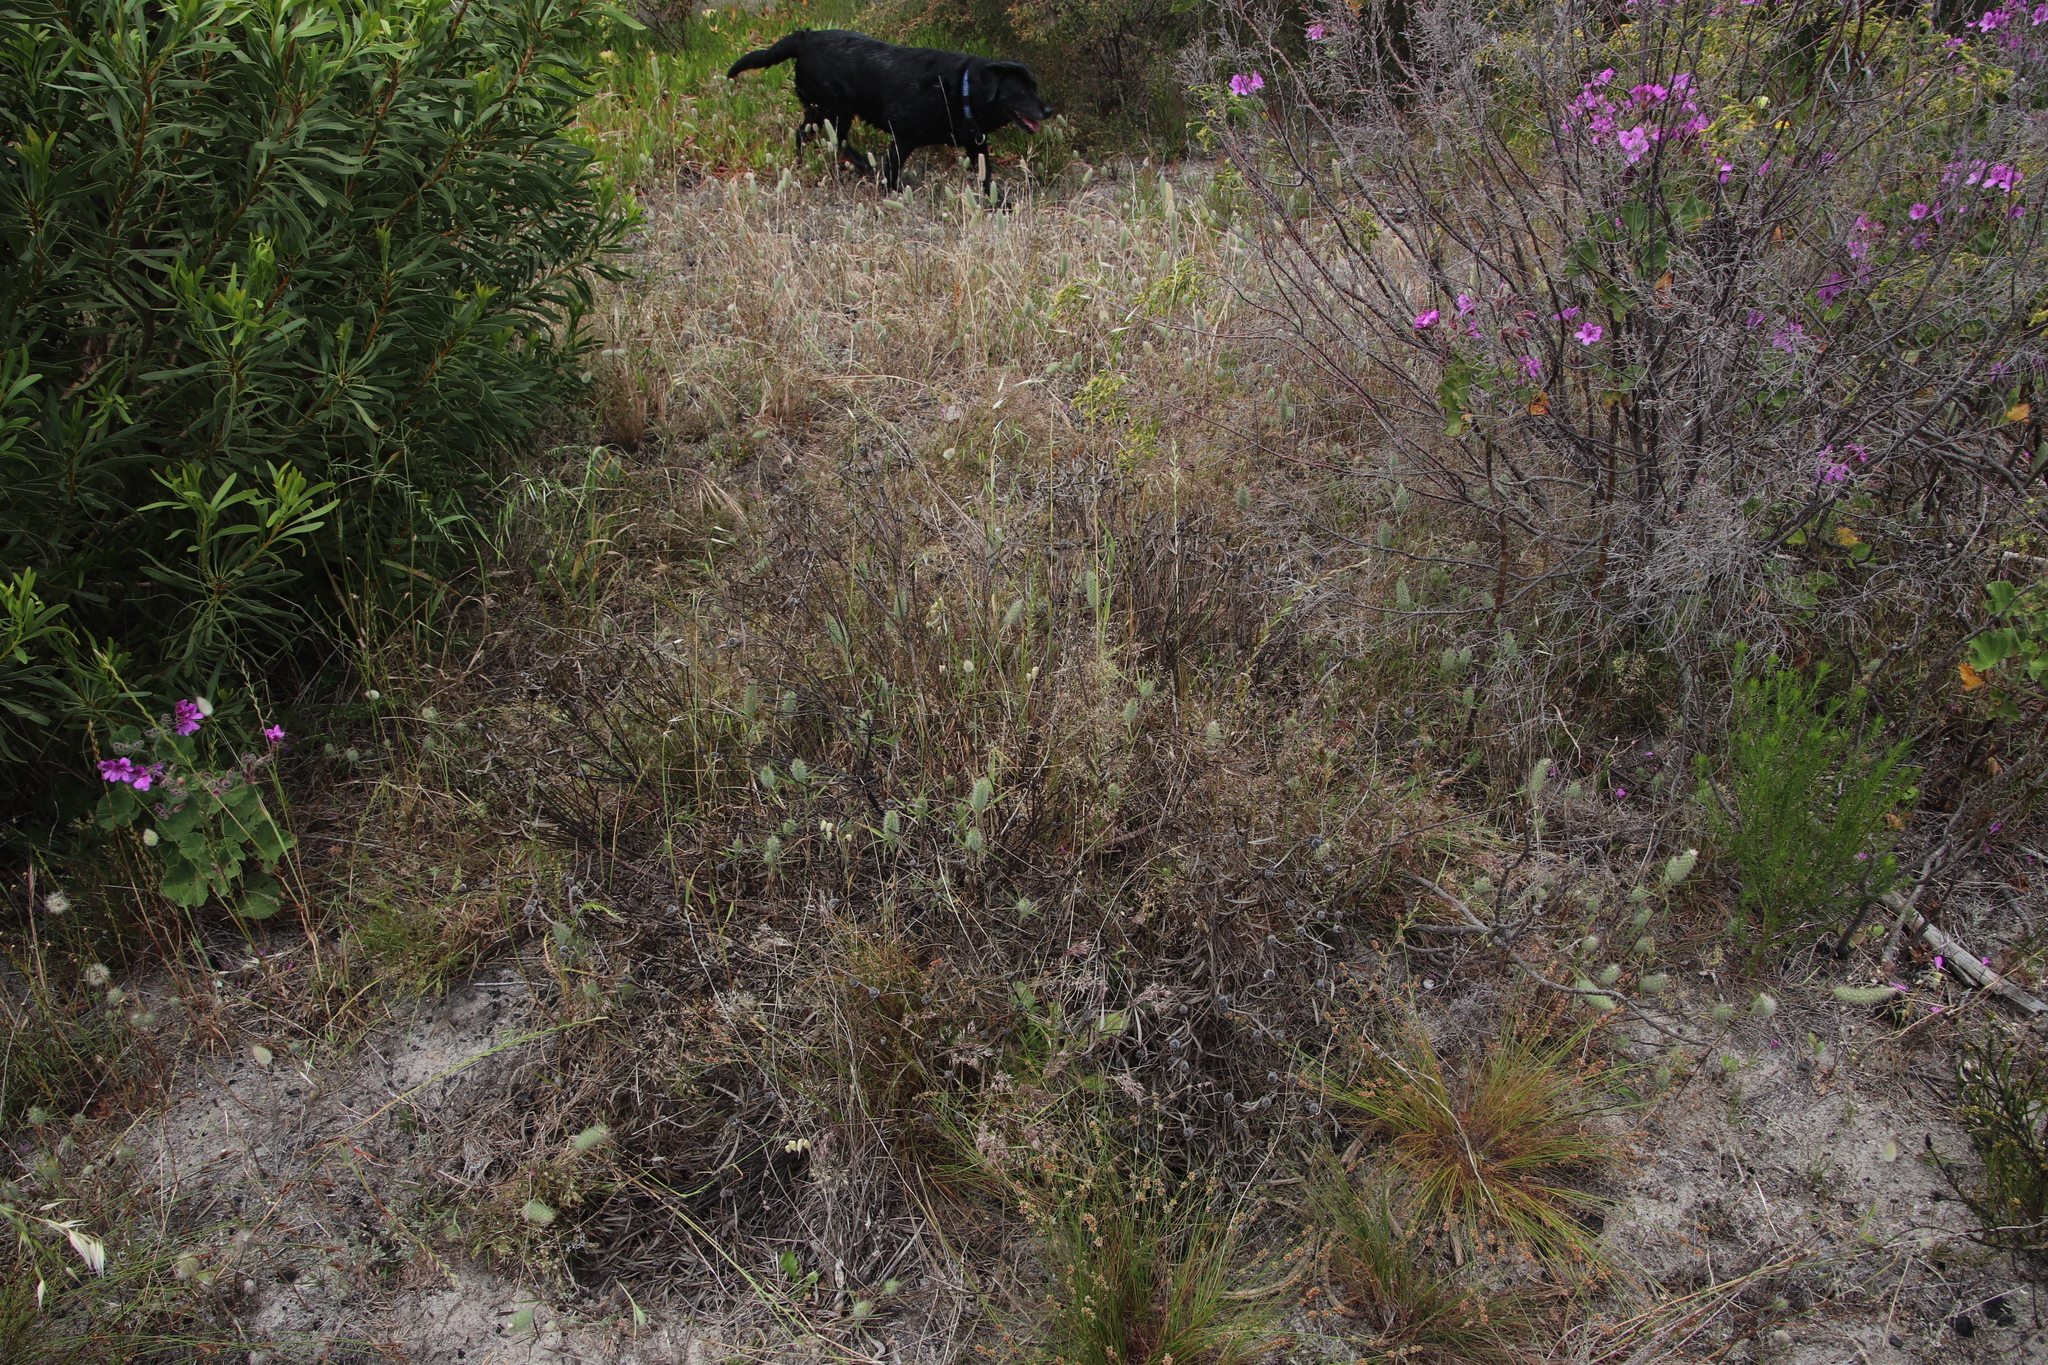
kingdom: Plantae
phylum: Tracheophyta
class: Magnoliopsida
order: Proteales
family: Proteaceae
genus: Leucadendron
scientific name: Leucadendron salignum
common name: Common sunshine conebush
